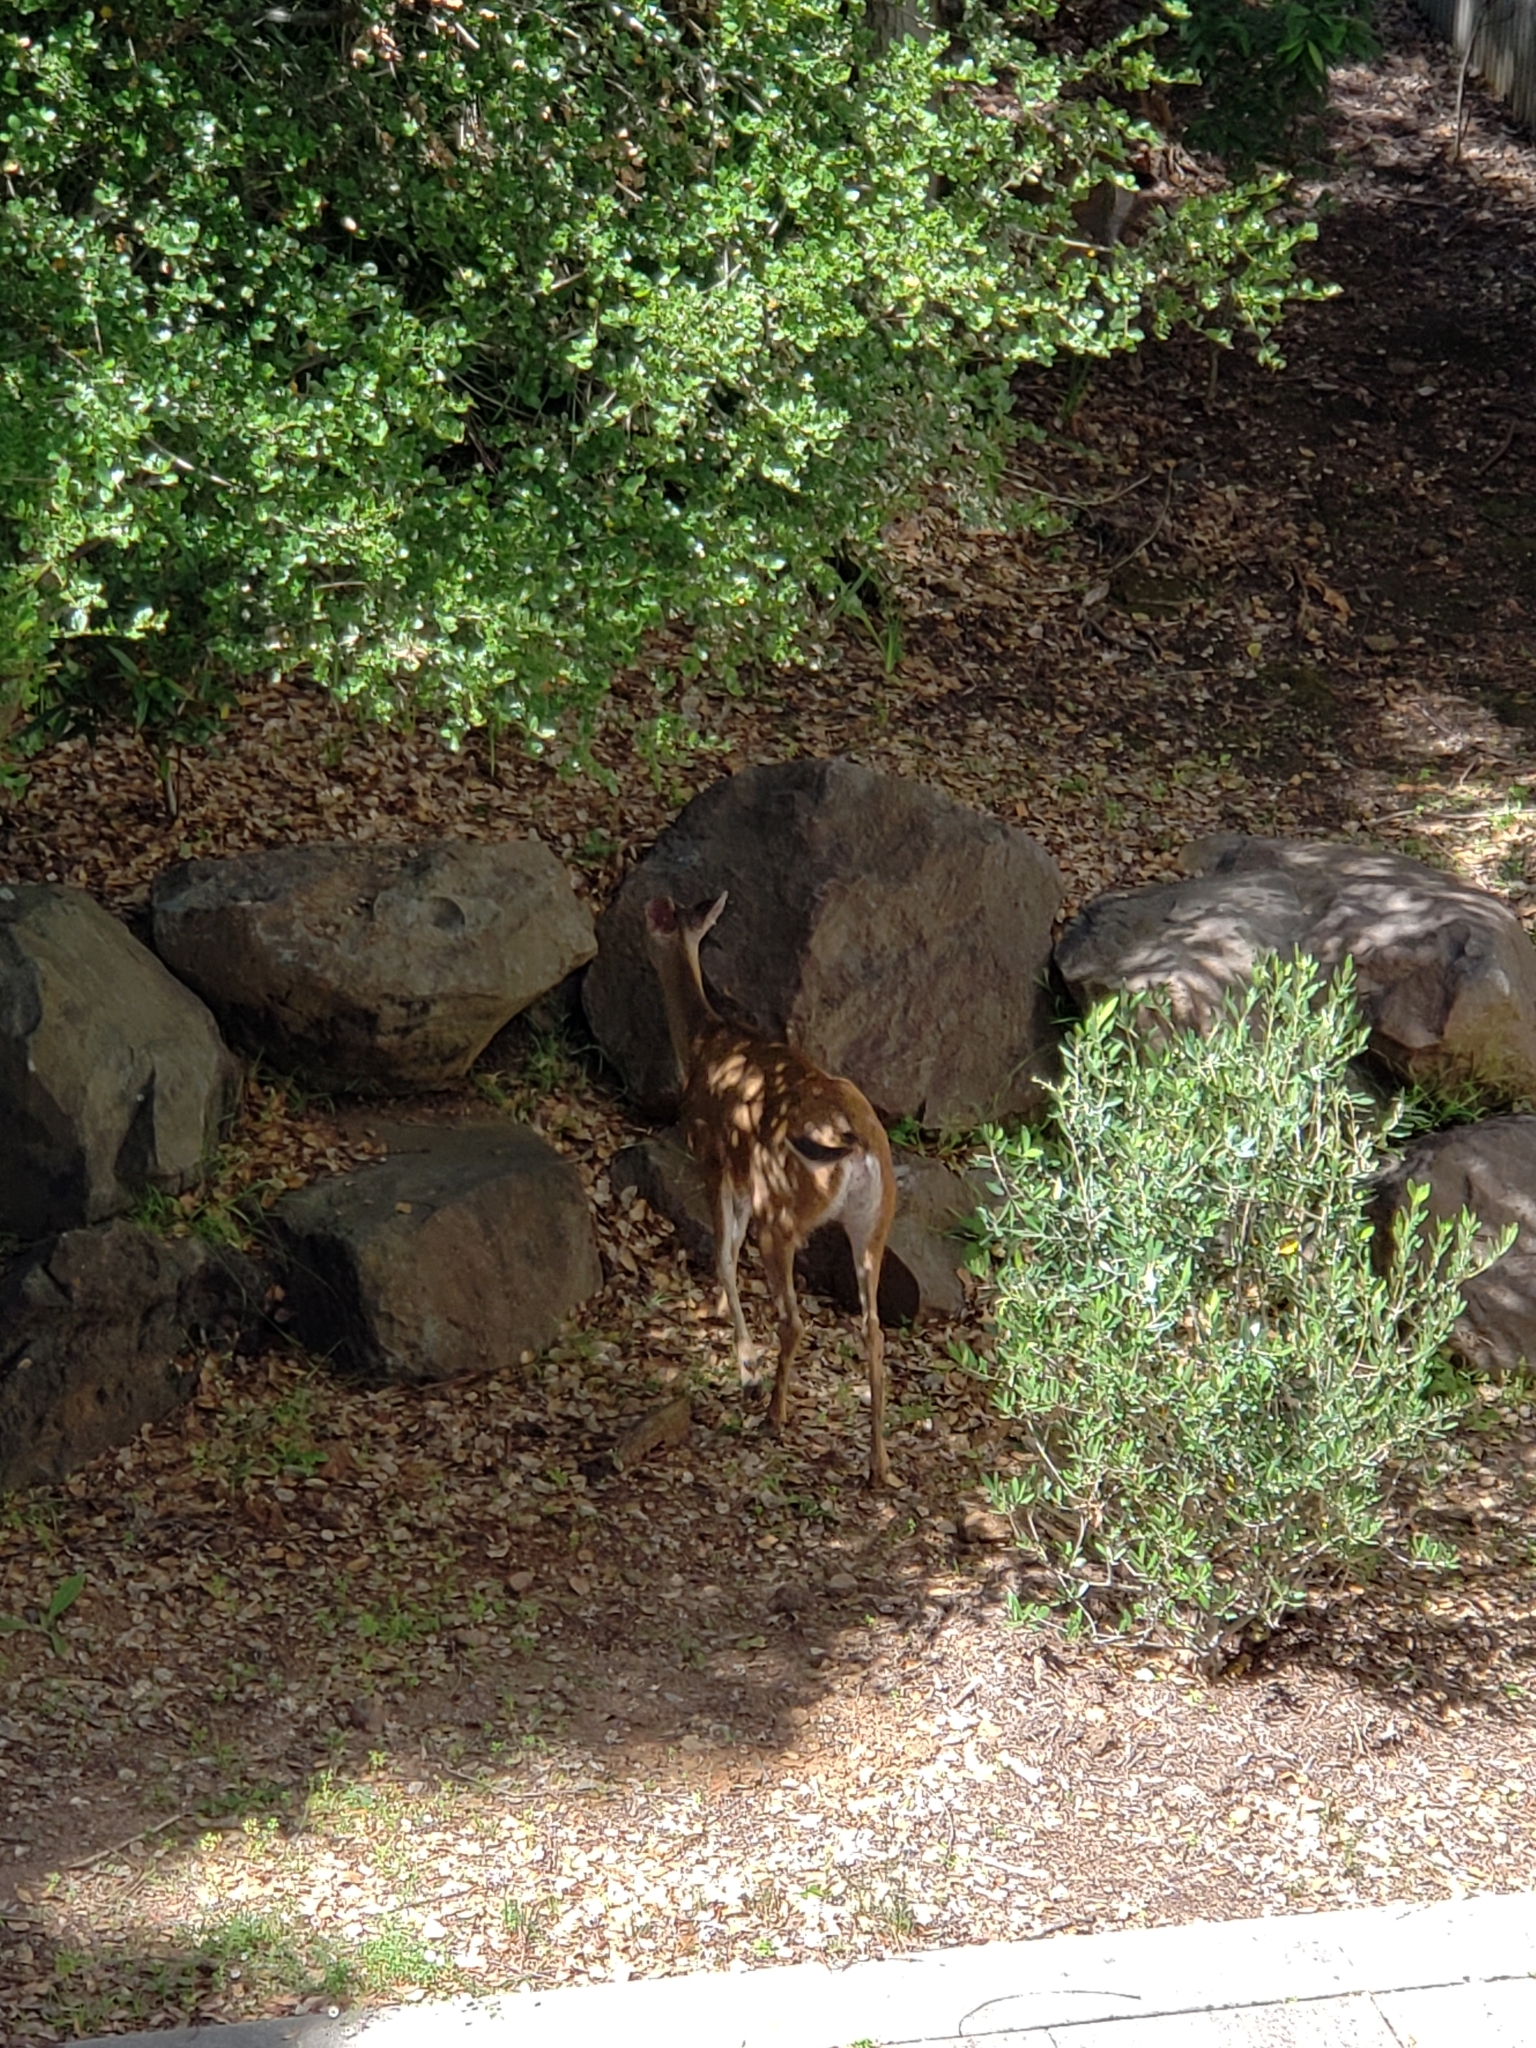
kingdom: Animalia
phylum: Chordata
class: Mammalia
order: Artiodactyla
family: Cervidae
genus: Odocoileus
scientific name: Odocoileus hemionus
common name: Mule deer
